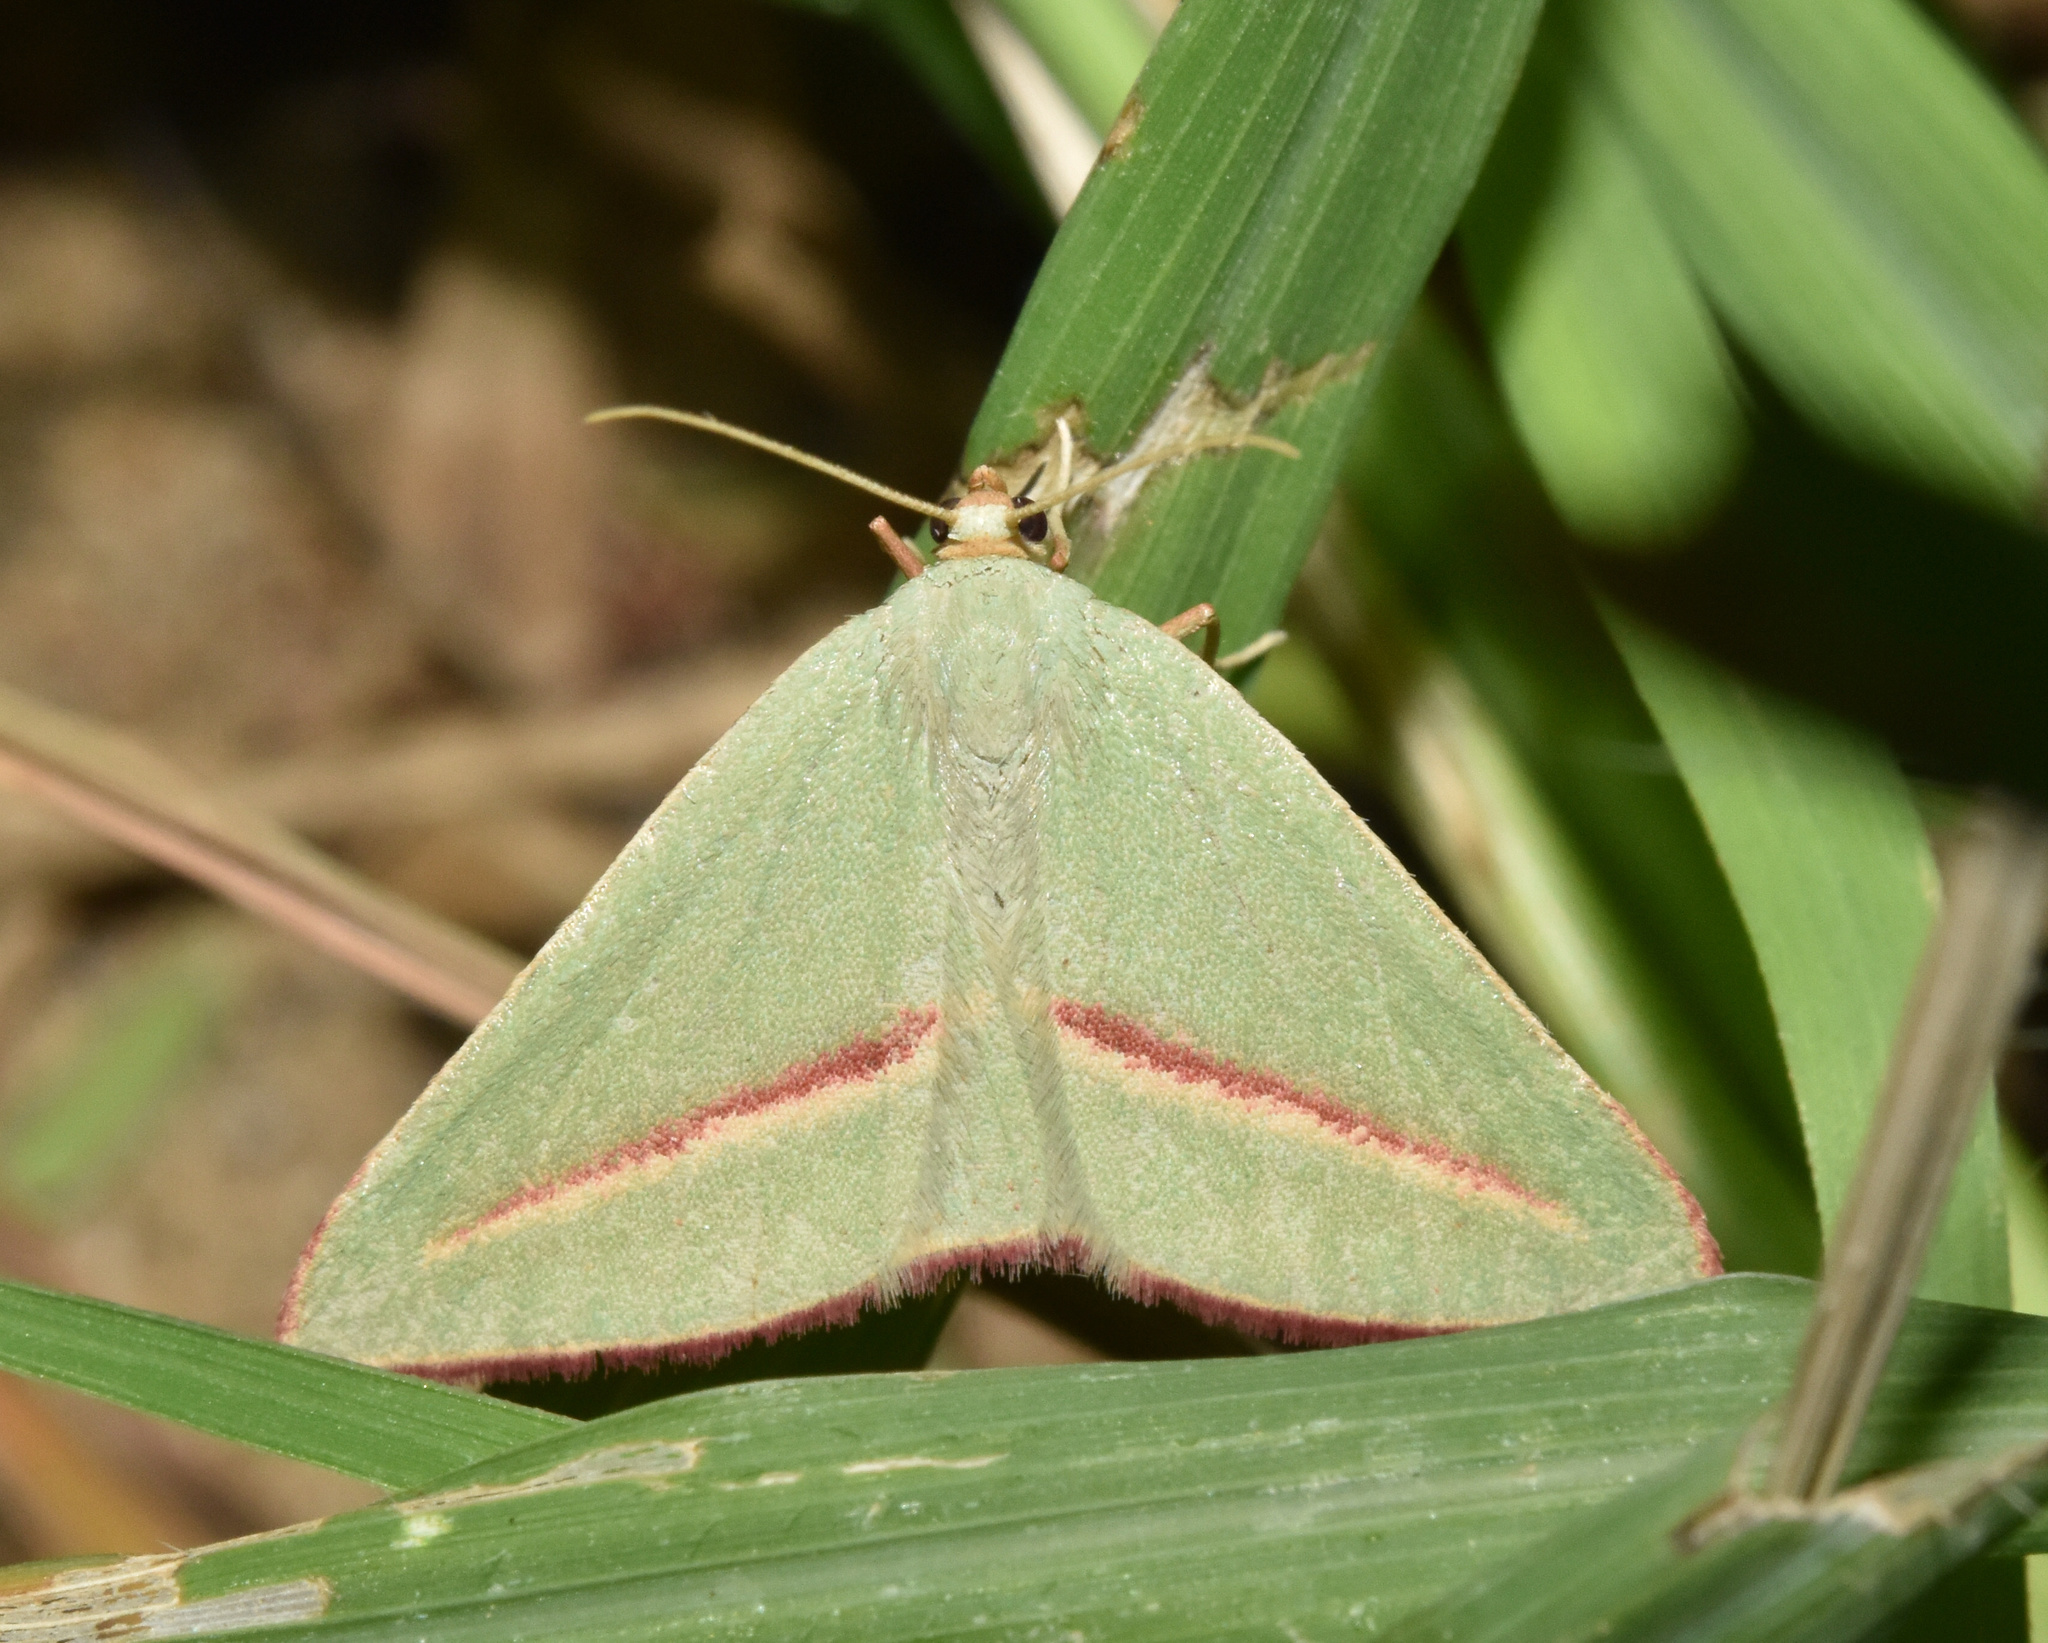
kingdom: Animalia
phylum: Arthropoda
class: Insecta
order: Lepidoptera
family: Geometridae
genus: Chlorerythra
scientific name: Chlorerythra rubriplaga
